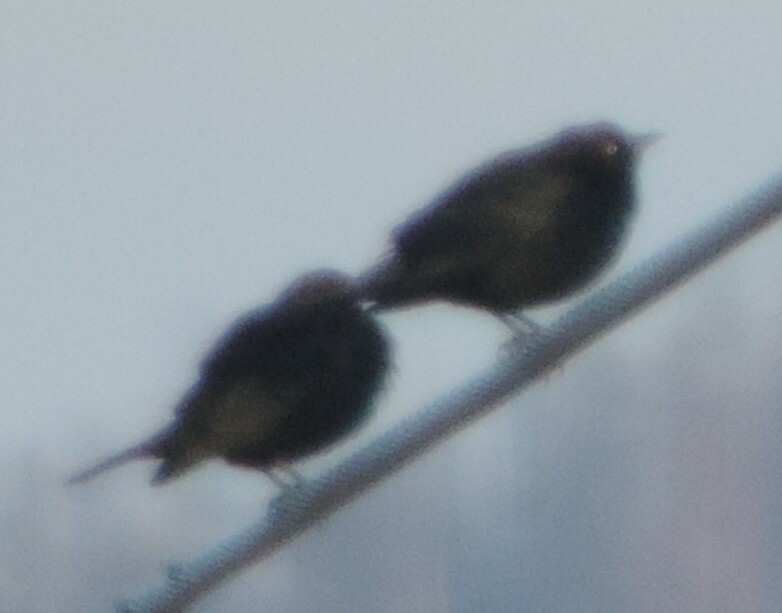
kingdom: Animalia
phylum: Chordata
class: Aves
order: Passeriformes
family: Icteridae
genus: Euphagus
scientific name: Euphagus cyanocephalus
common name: Brewer's blackbird
